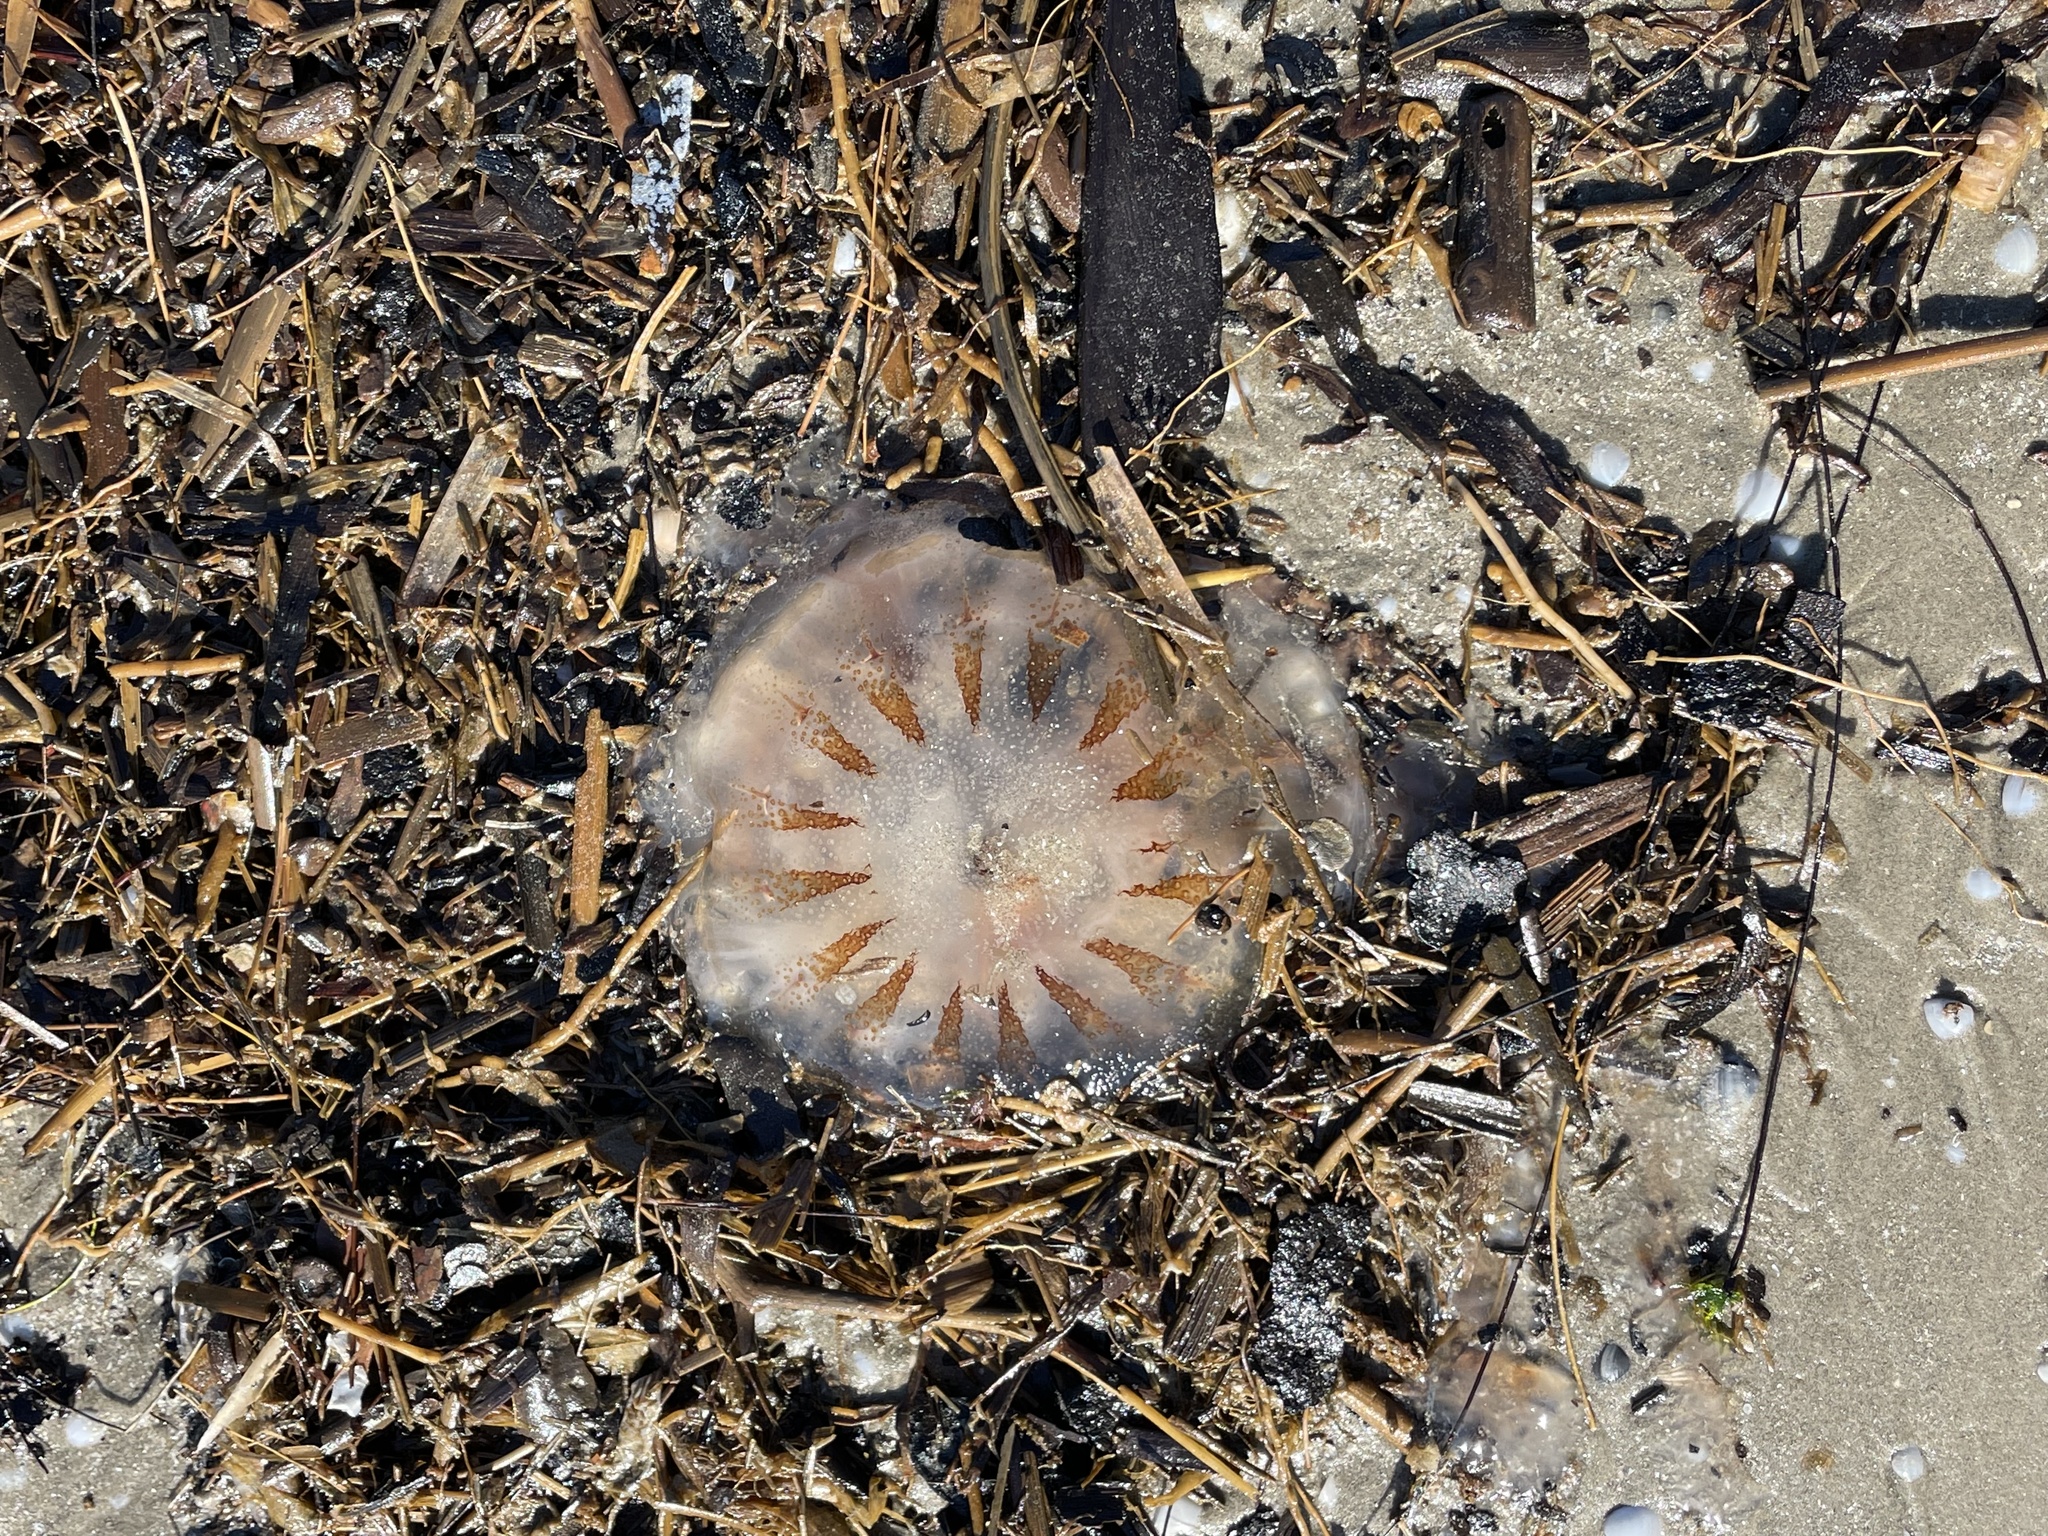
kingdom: Animalia
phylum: Cnidaria
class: Scyphozoa
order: Semaeostomeae
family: Pelagiidae
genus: Chrysaora
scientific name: Chrysaora chesapeakei
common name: Bay nettle
